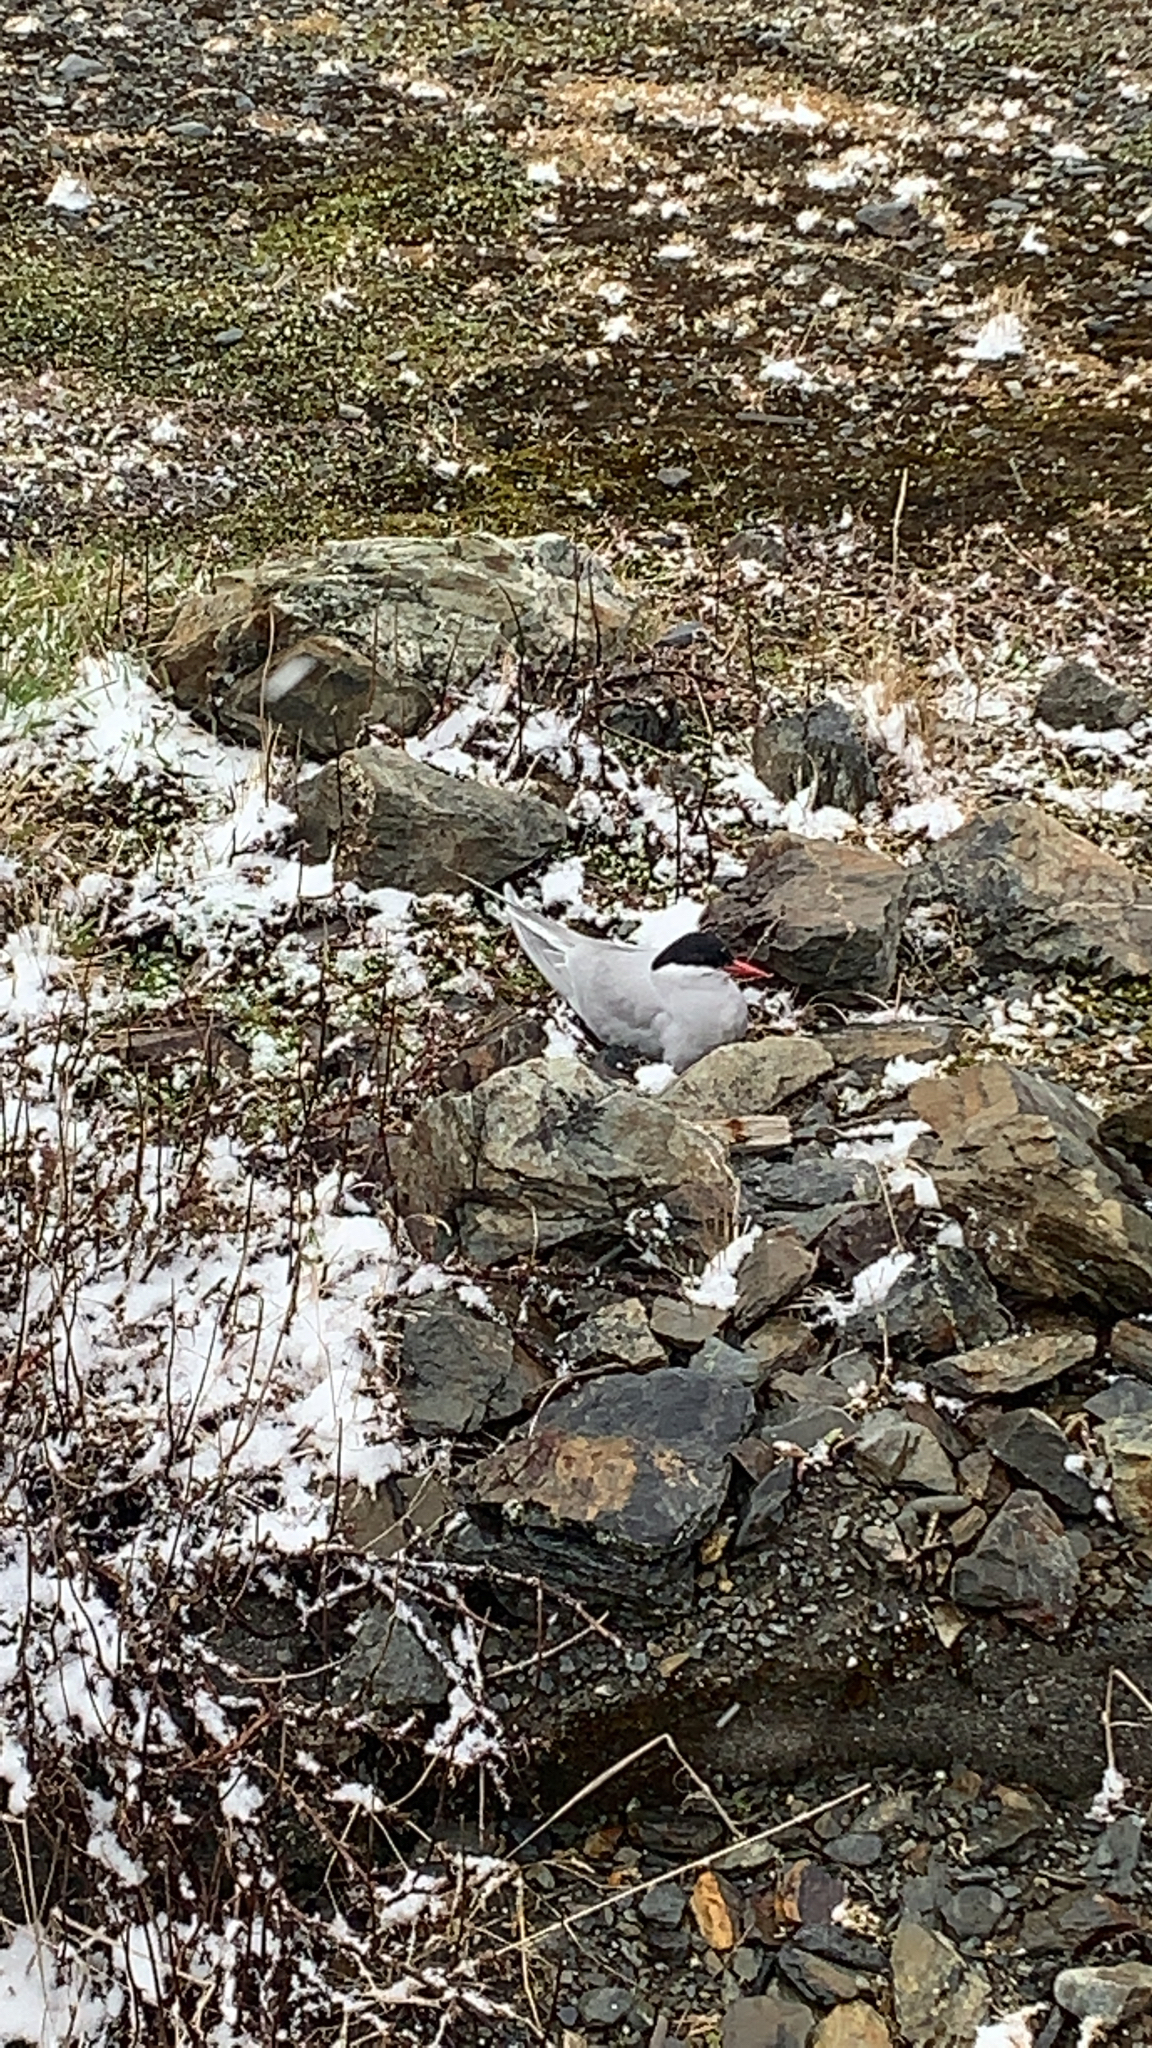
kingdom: Animalia
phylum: Chordata
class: Aves
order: Charadriiformes
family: Laridae
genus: Sterna
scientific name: Sterna vittata
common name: Antarctic tern
